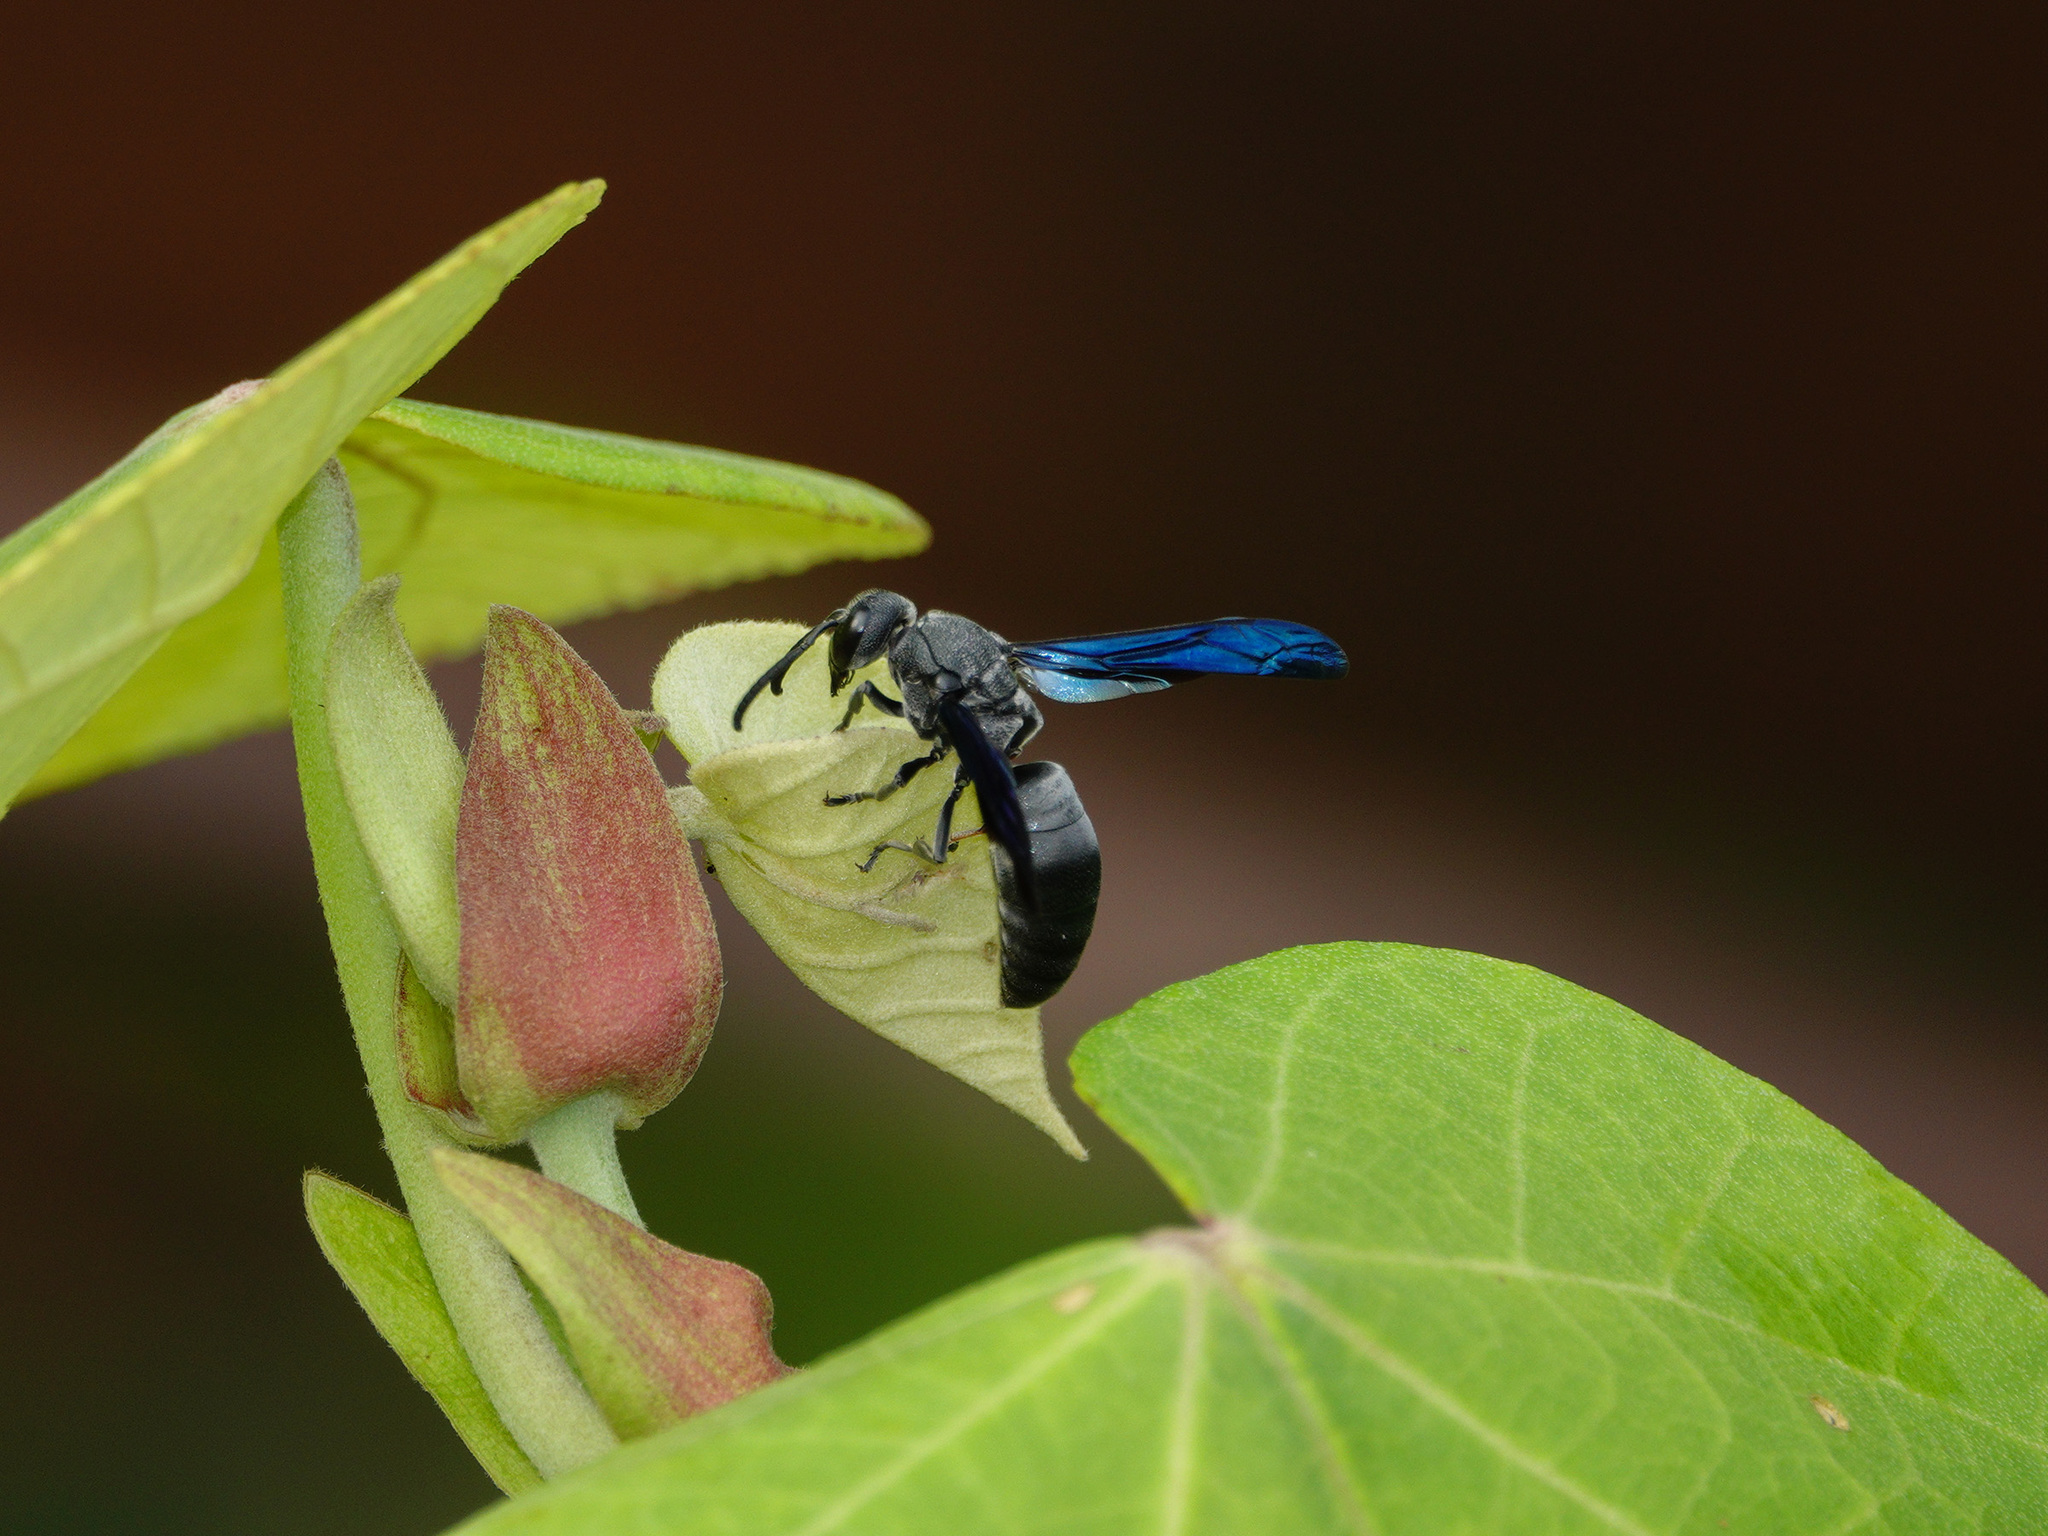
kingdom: Animalia
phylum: Arthropoda
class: Insecta
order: Hymenoptera
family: Eumenidae
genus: Allorhynchium
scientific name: Allorhynchium argentatum
